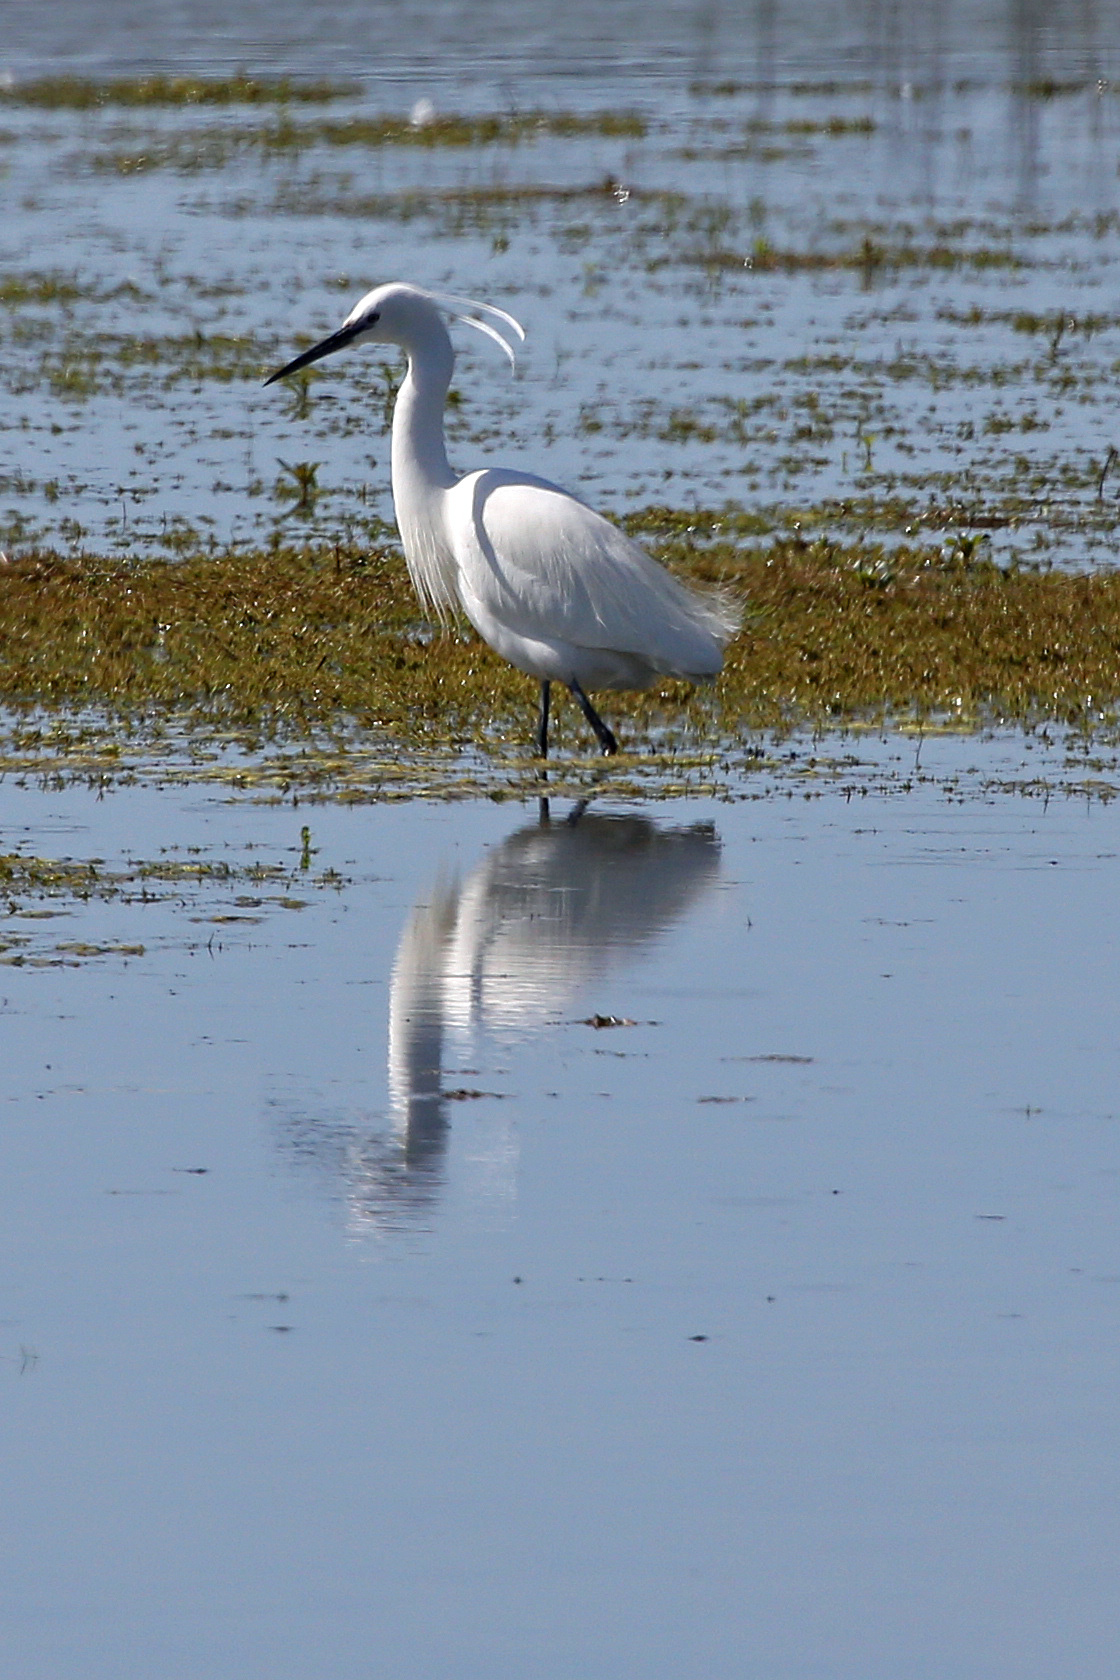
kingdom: Animalia
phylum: Chordata
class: Aves
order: Pelecaniformes
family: Ardeidae
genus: Egretta
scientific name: Egretta garzetta
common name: Little egret
